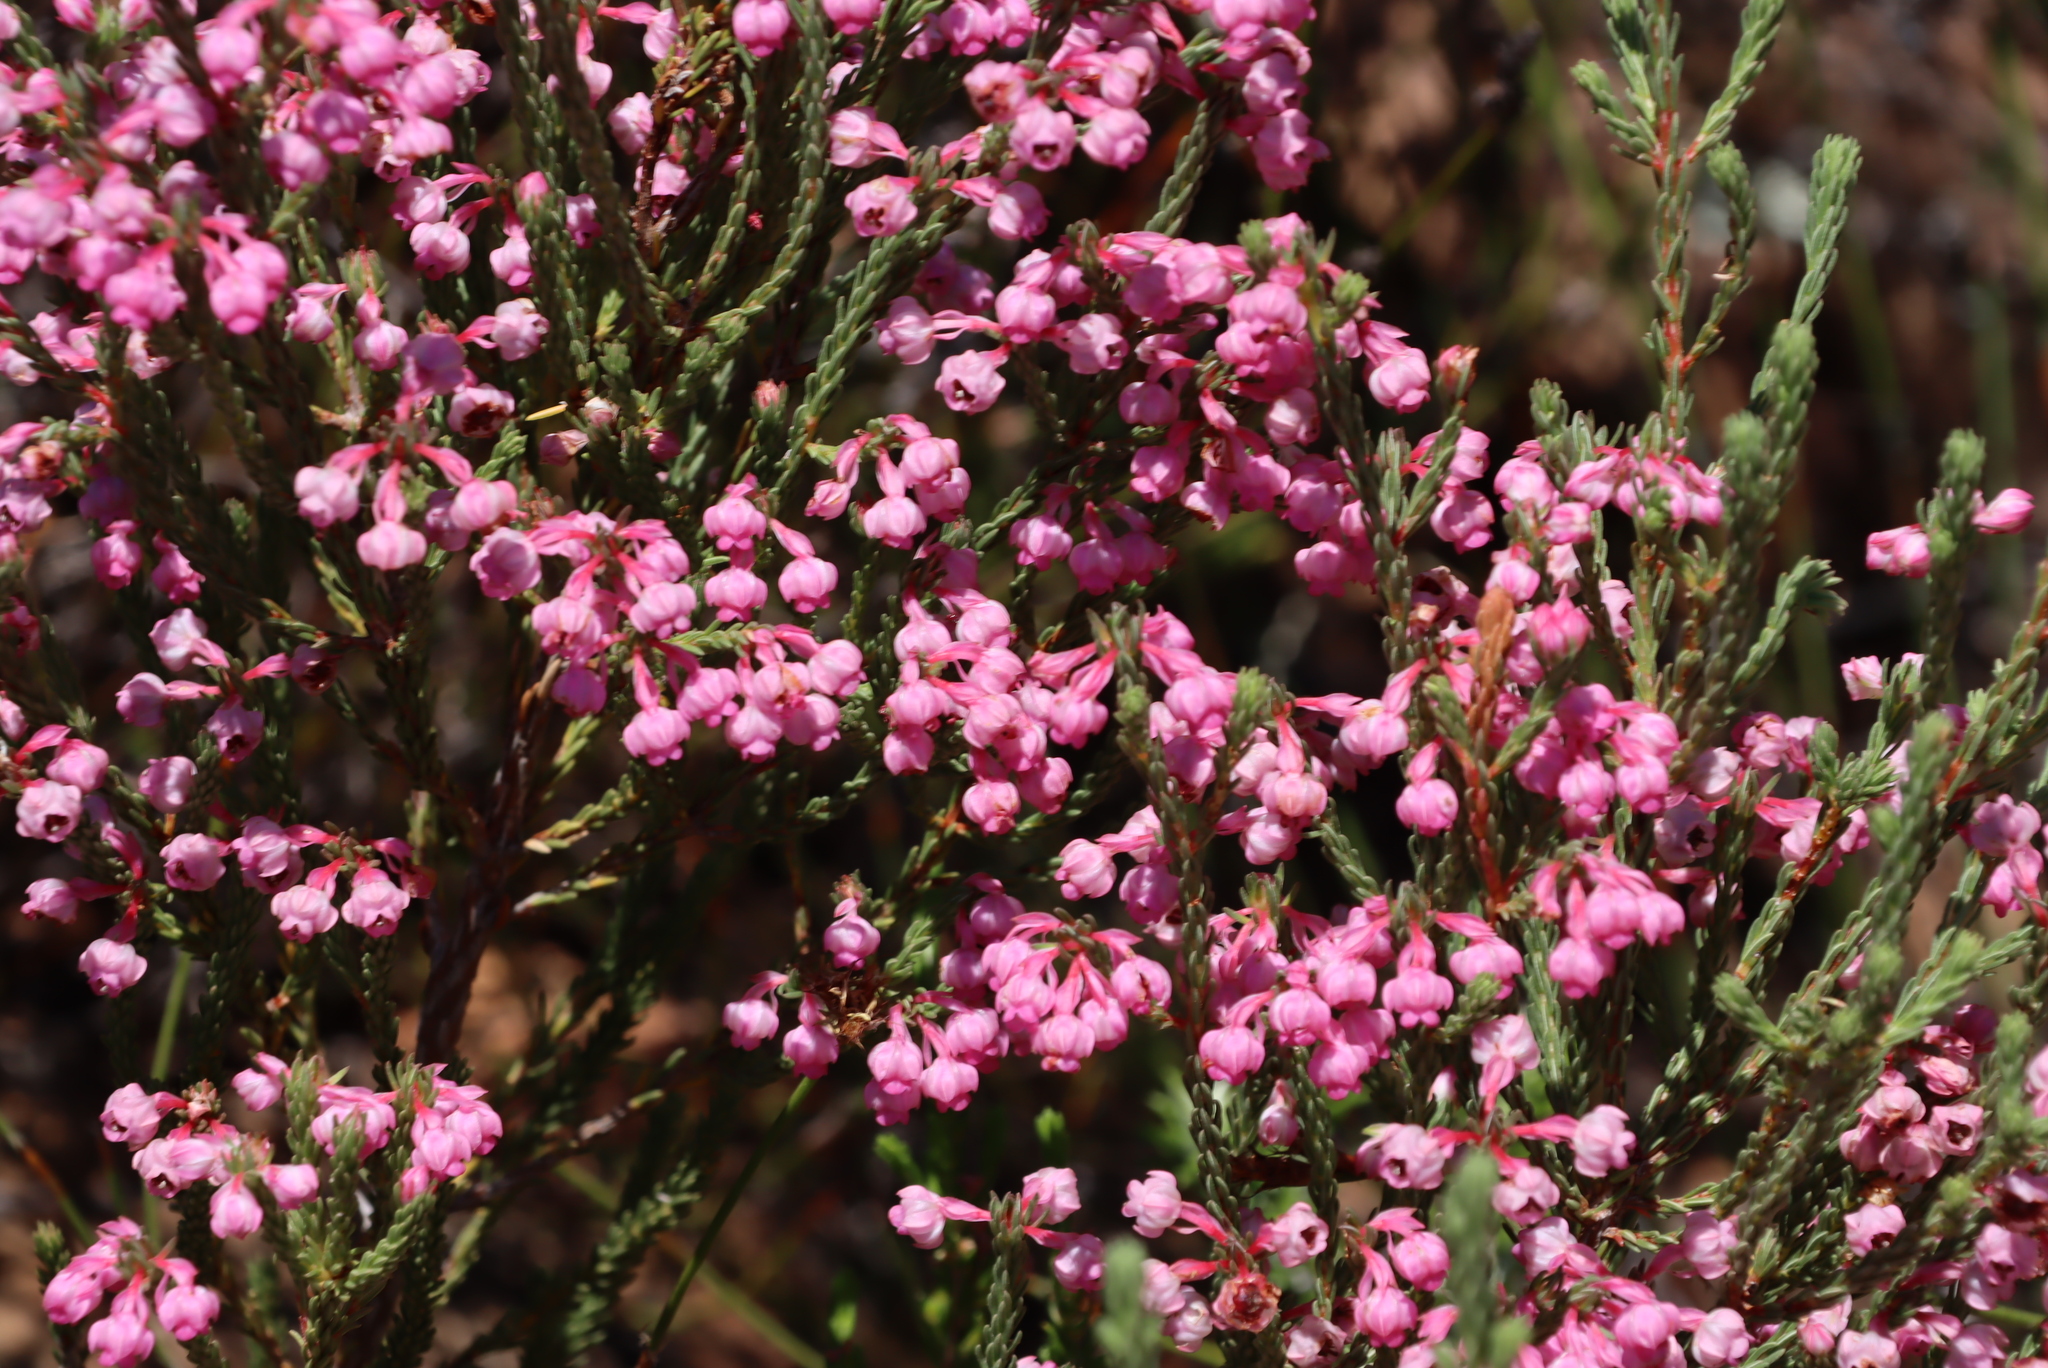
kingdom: Plantae
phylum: Tracheophyta
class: Magnoliopsida
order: Ericales
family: Ericaceae
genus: Erica
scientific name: Erica baccans
